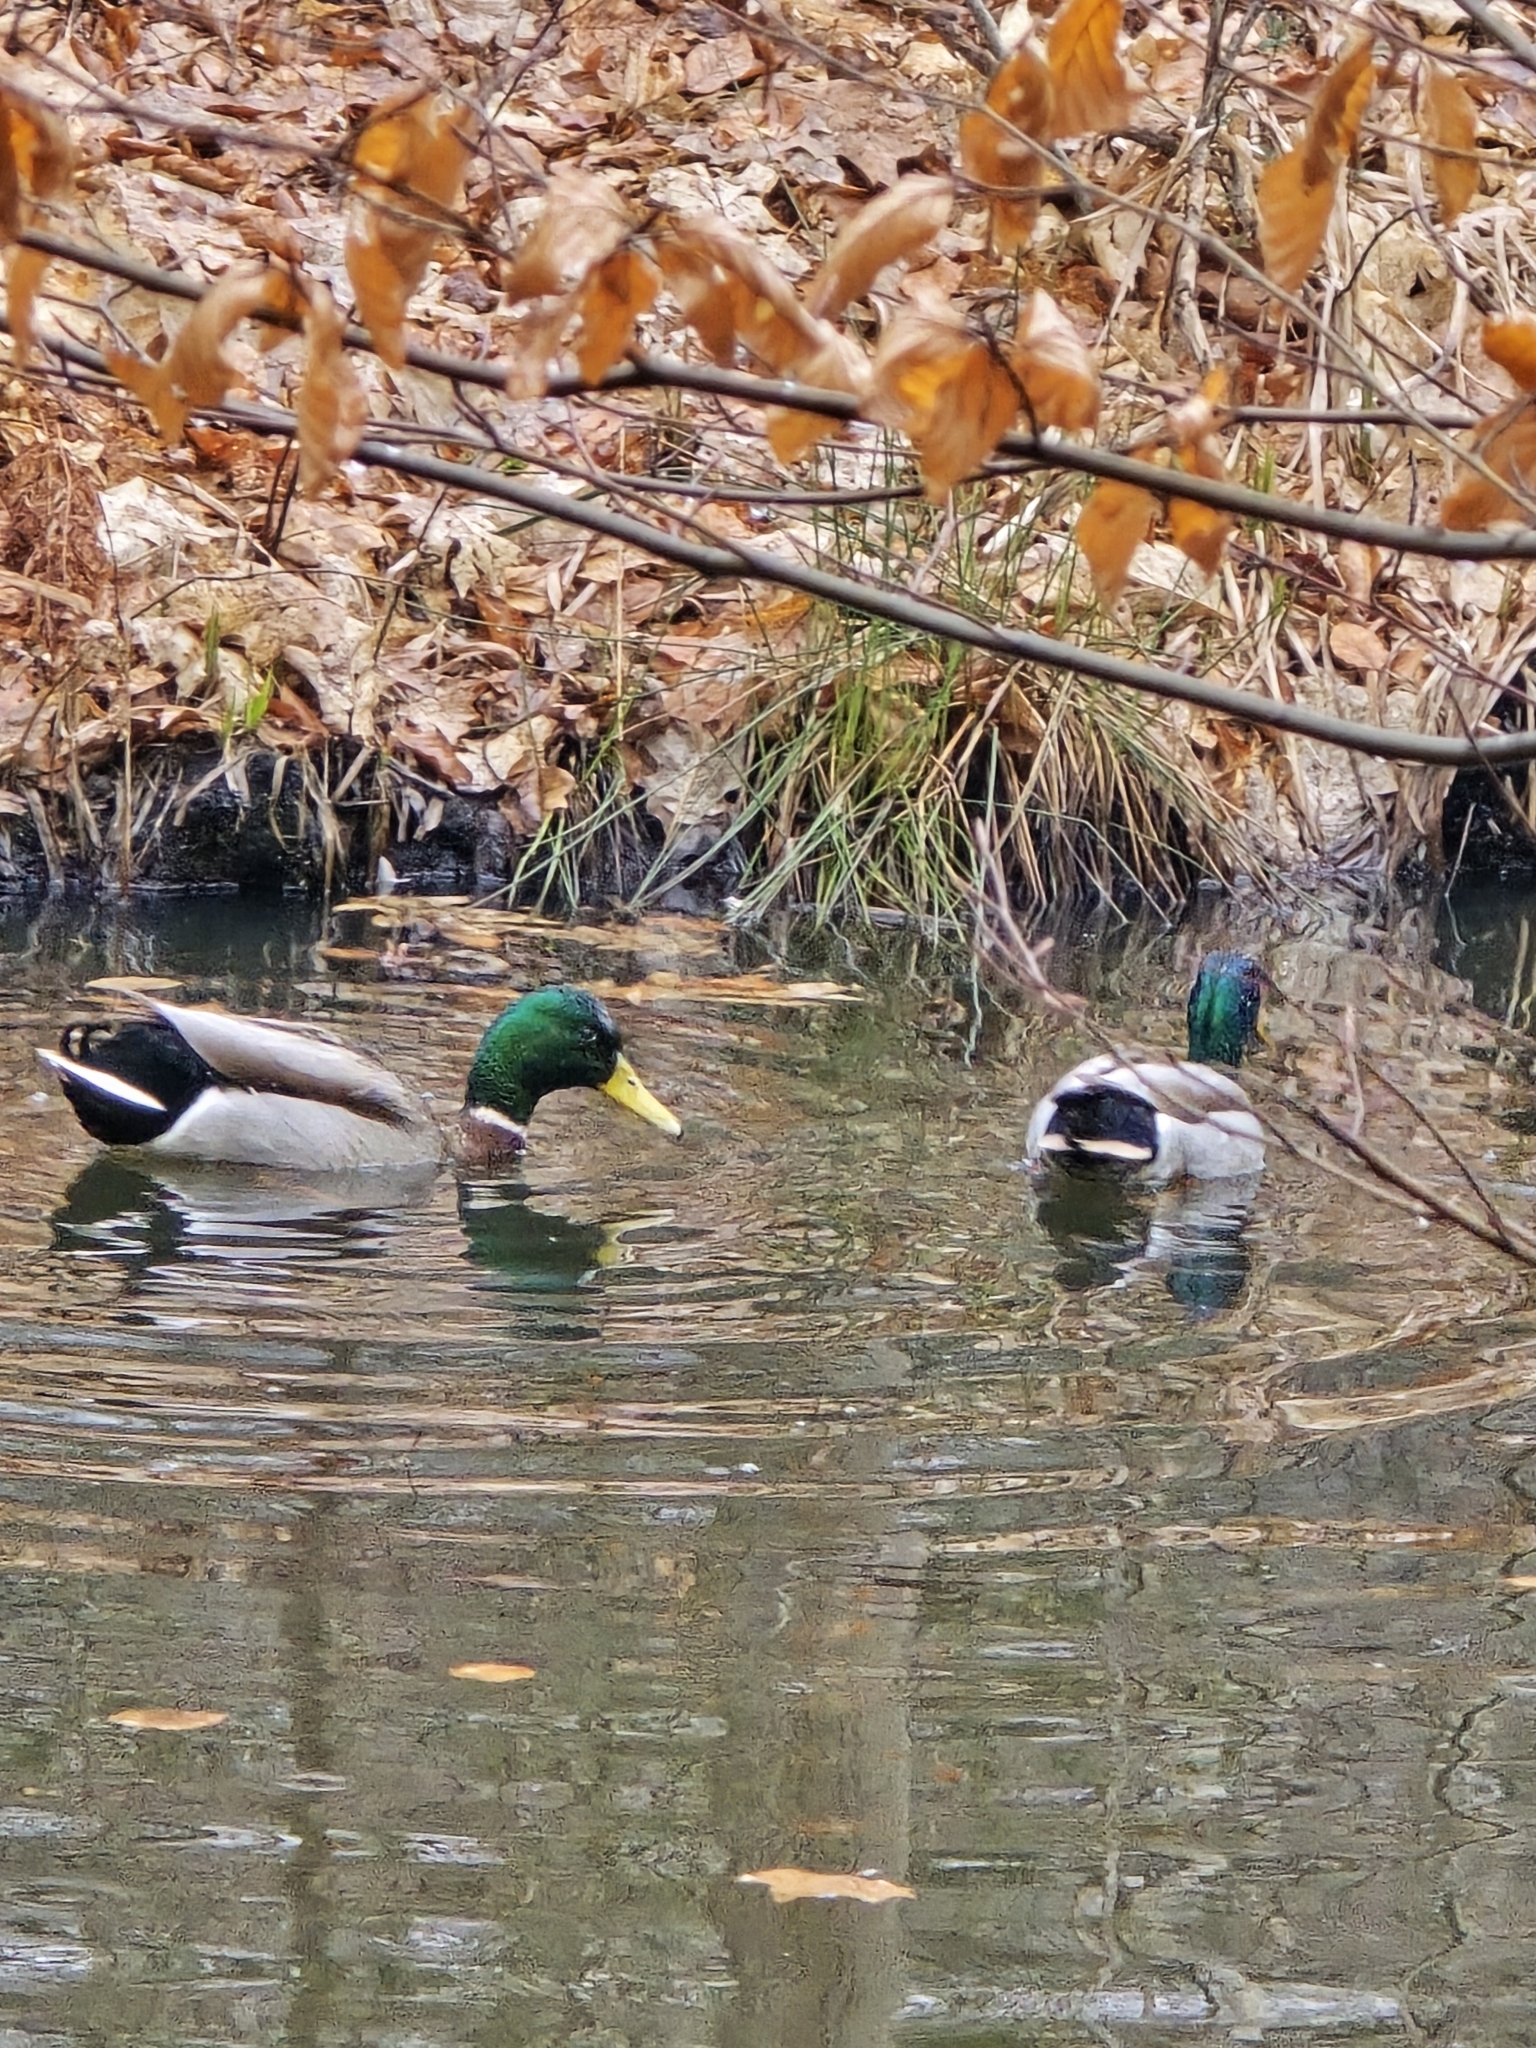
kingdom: Animalia
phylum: Chordata
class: Aves
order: Anseriformes
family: Anatidae
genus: Anas
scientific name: Anas platyrhynchos
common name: Mallard
